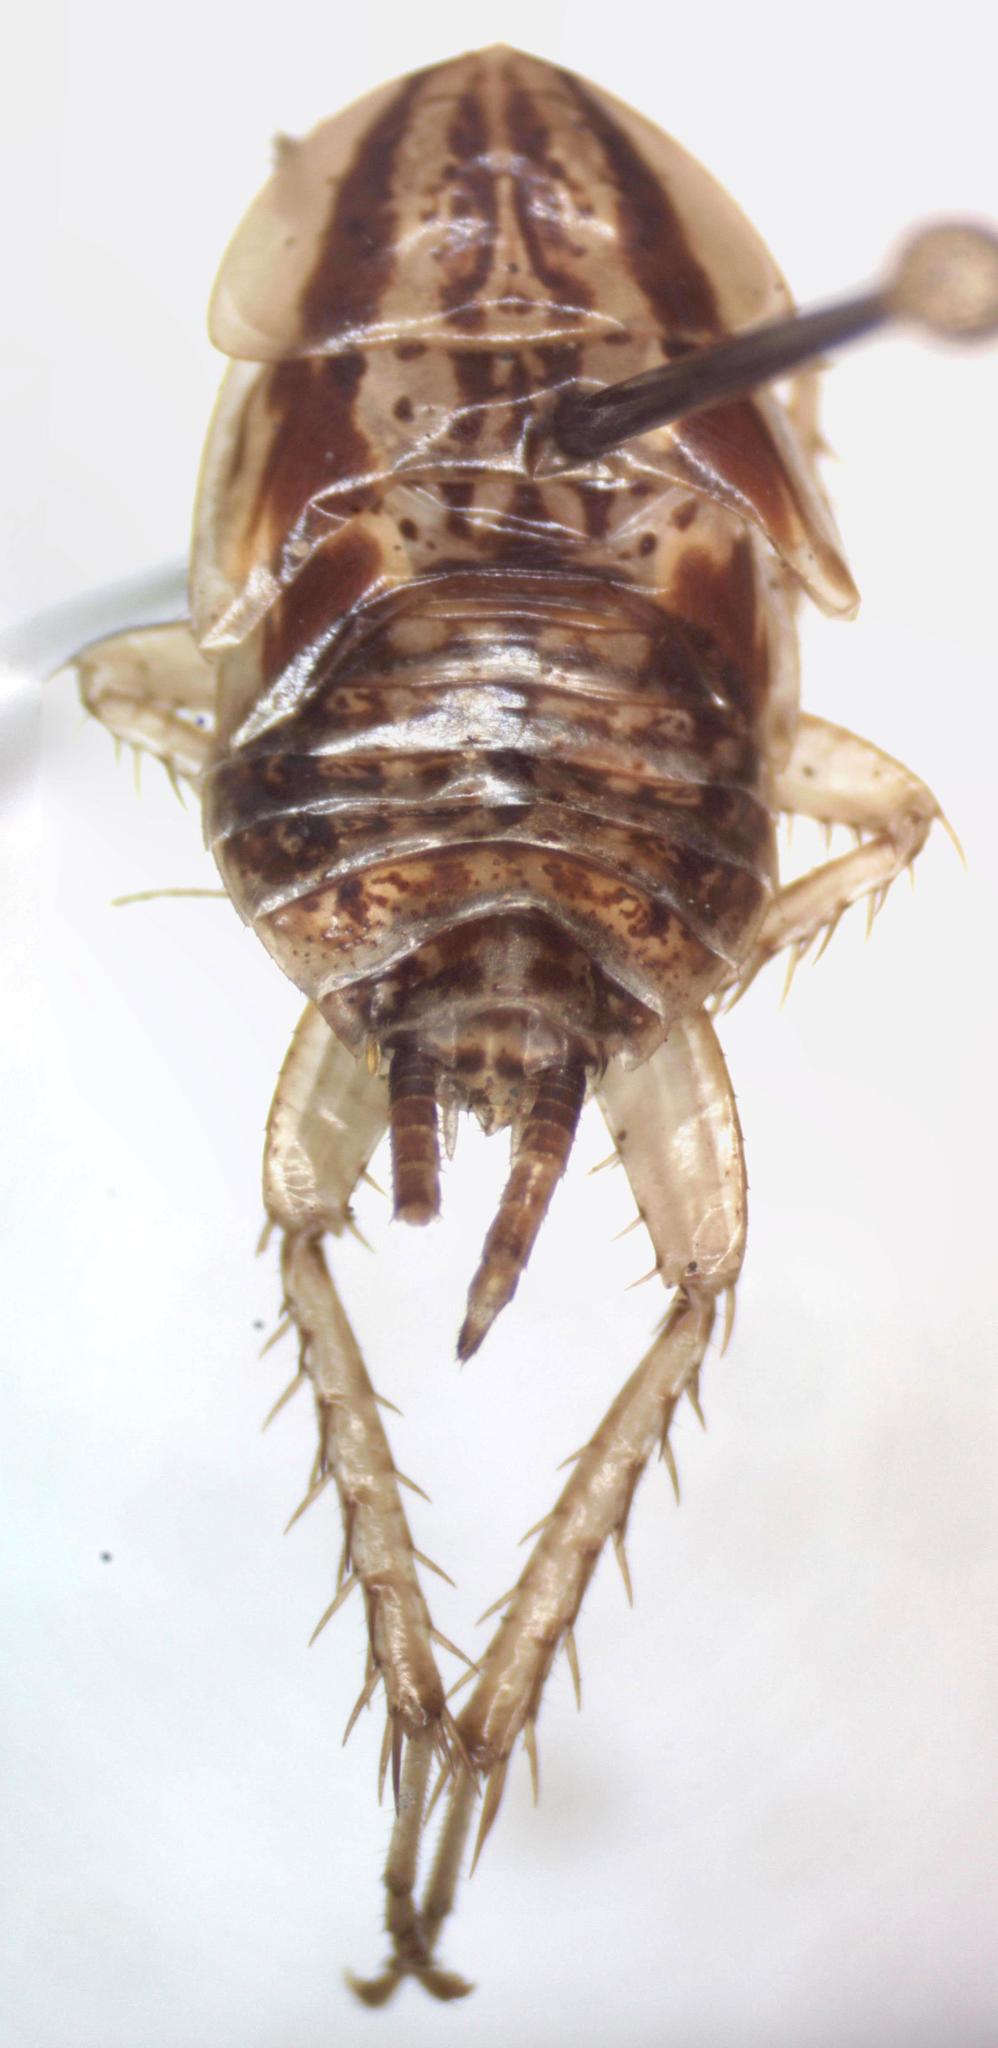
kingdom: Animalia
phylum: Arthropoda
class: Insecta
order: Blattodea
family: Ectobiidae
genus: Imblattella
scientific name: Imblattella chagrensis
